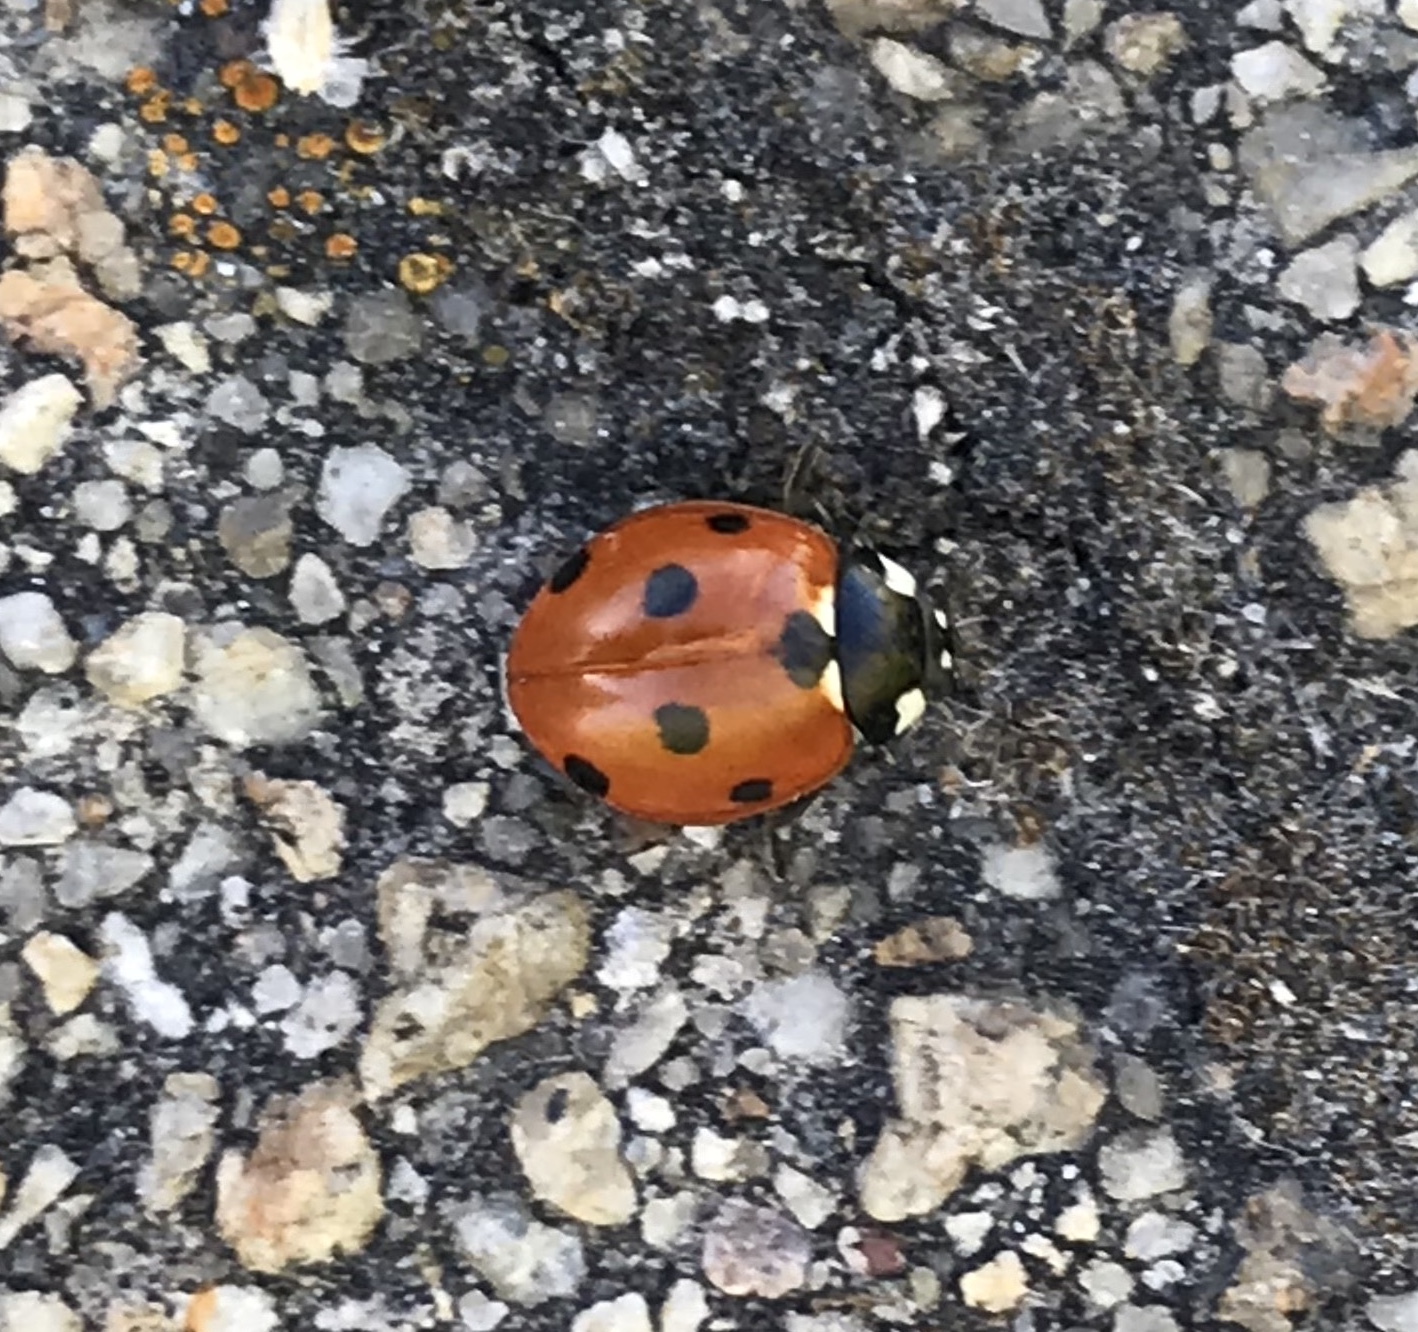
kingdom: Animalia
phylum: Arthropoda
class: Insecta
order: Coleoptera
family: Coccinellidae
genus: Coccinella
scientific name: Coccinella septempunctata
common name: Sevenspotted lady beetle
